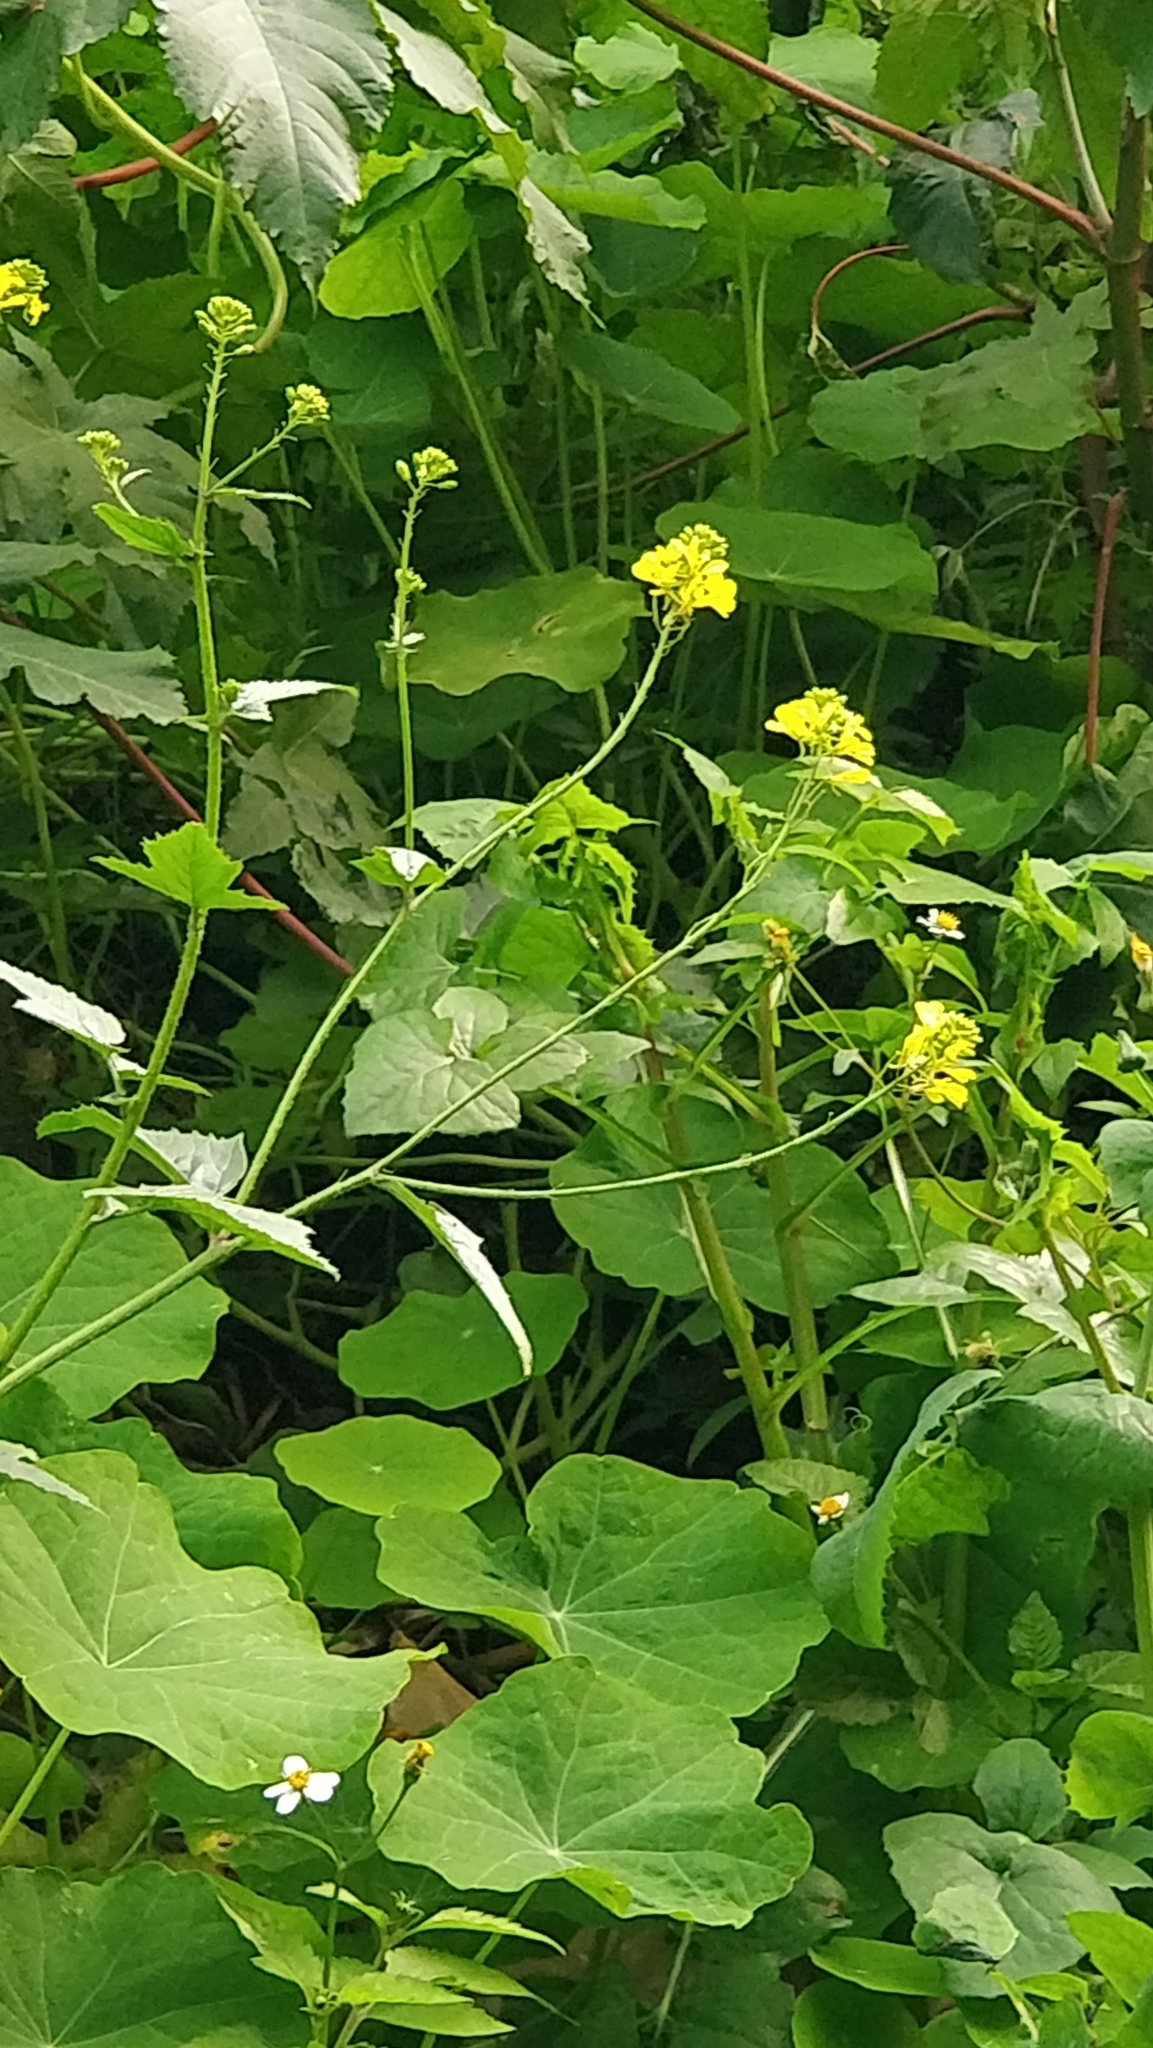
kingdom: Plantae
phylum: Tracheophyta
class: Magnoliopsida
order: Brassicales
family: Brassicaceae
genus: Sinapis
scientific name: Sinapis arvensis
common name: Charlock
